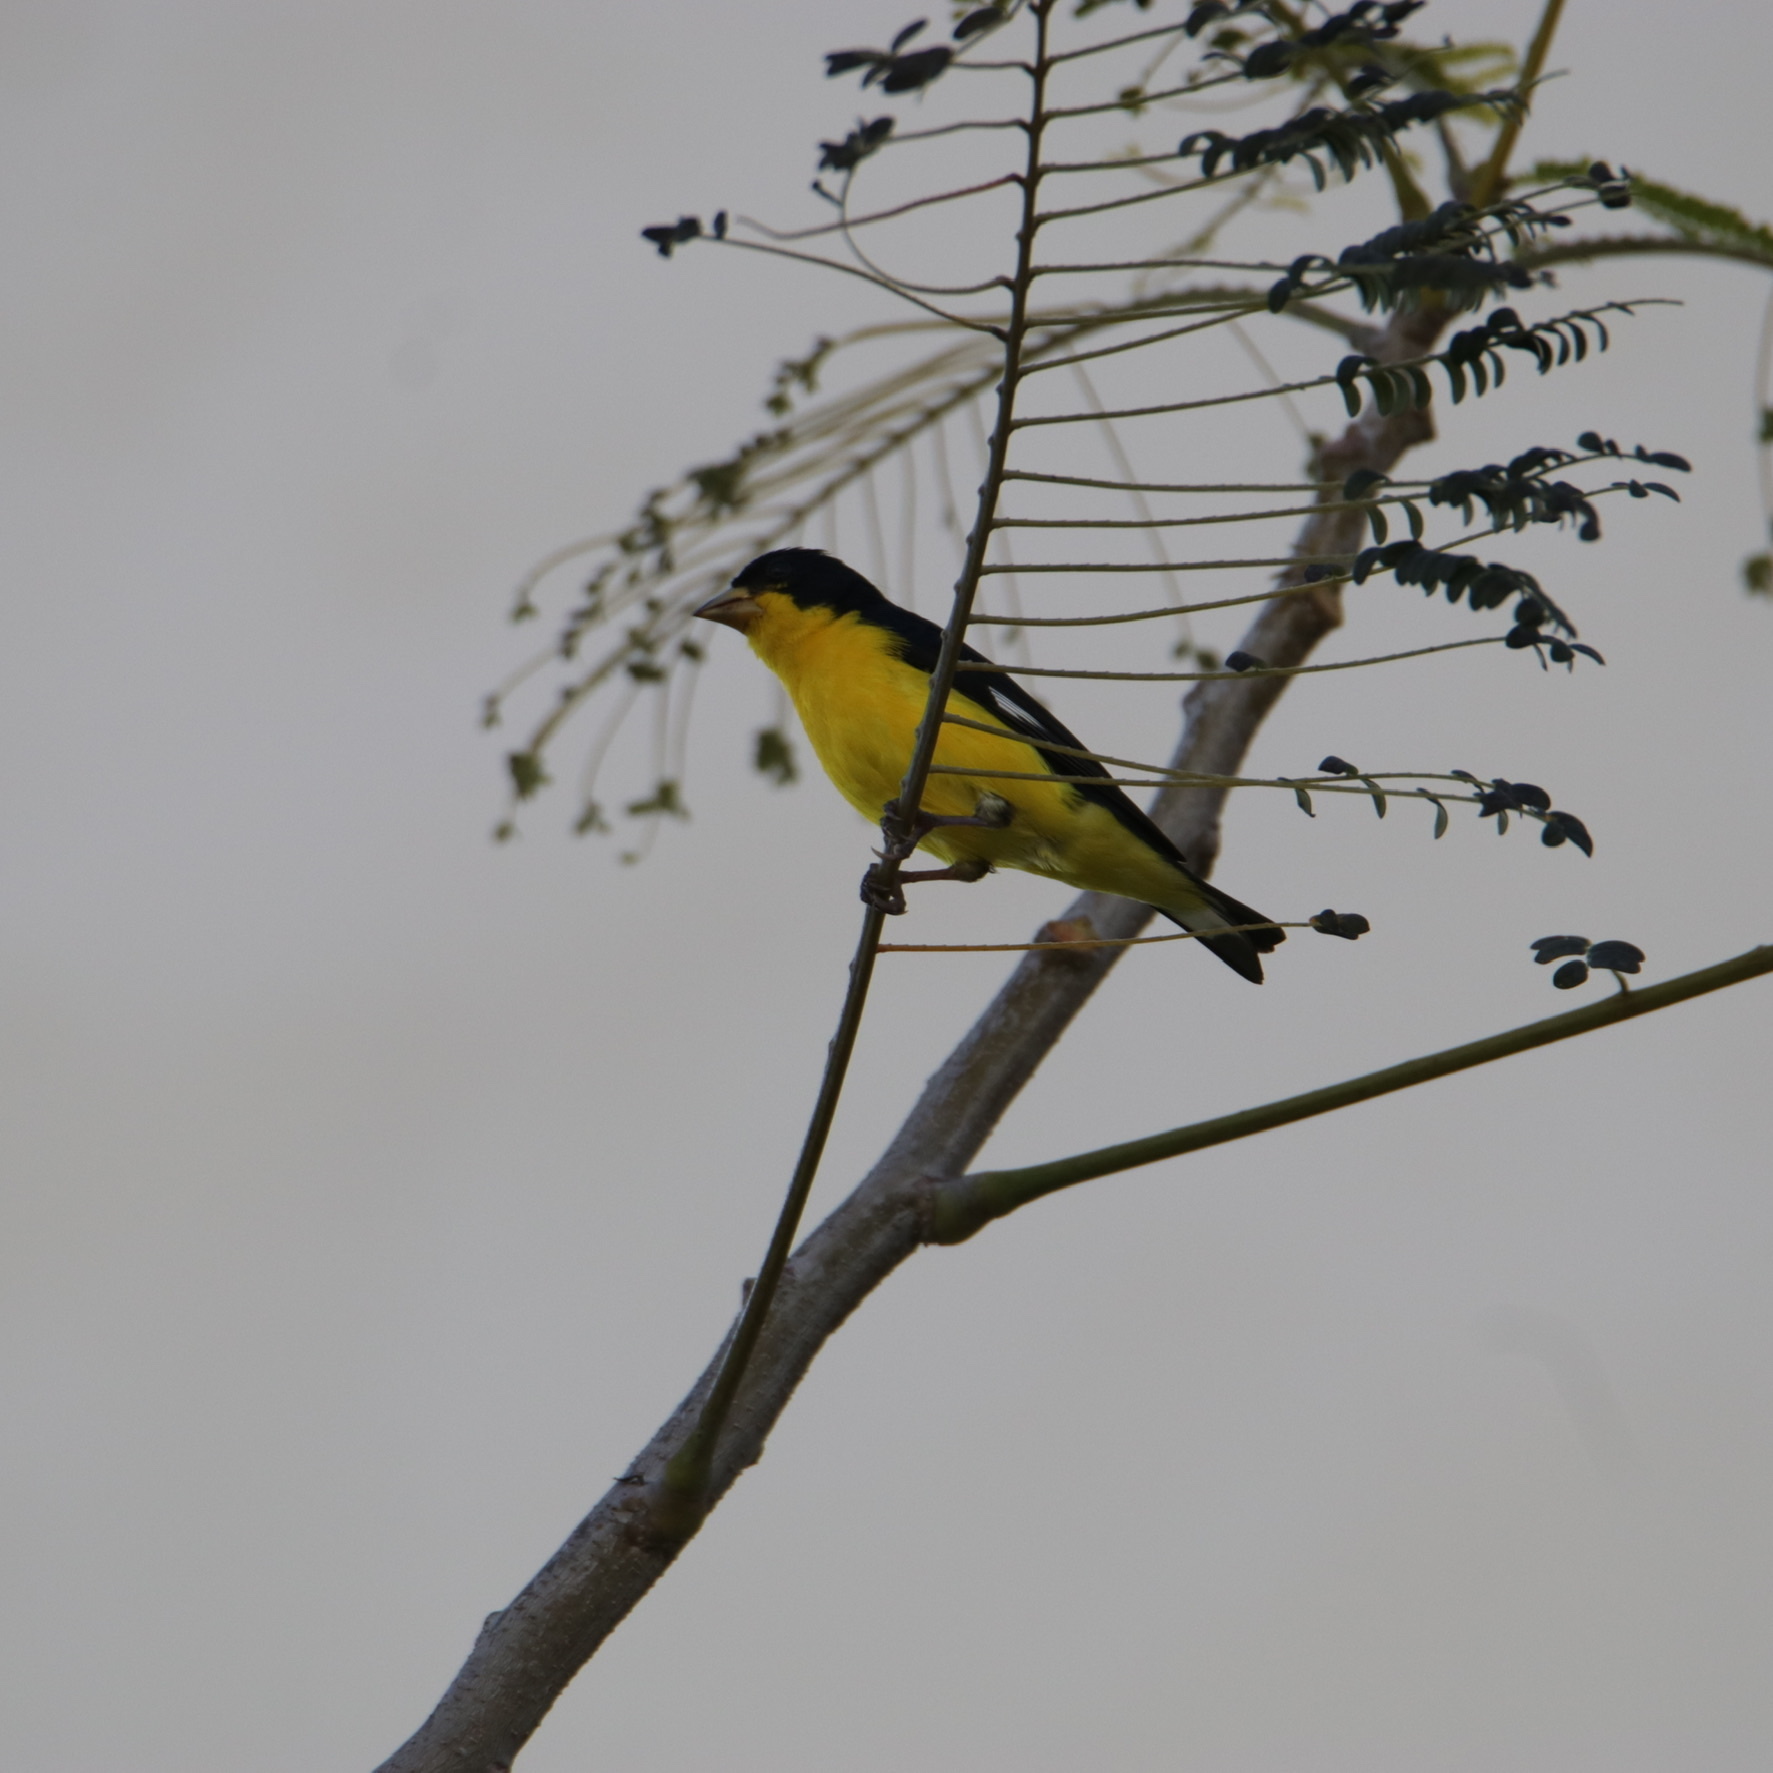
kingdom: Animalia
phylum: Chordata
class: Aves
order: Passeriformes
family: Fringillidae
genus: Spinus
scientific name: Spinus psaltria
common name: Lesser goldfinch
